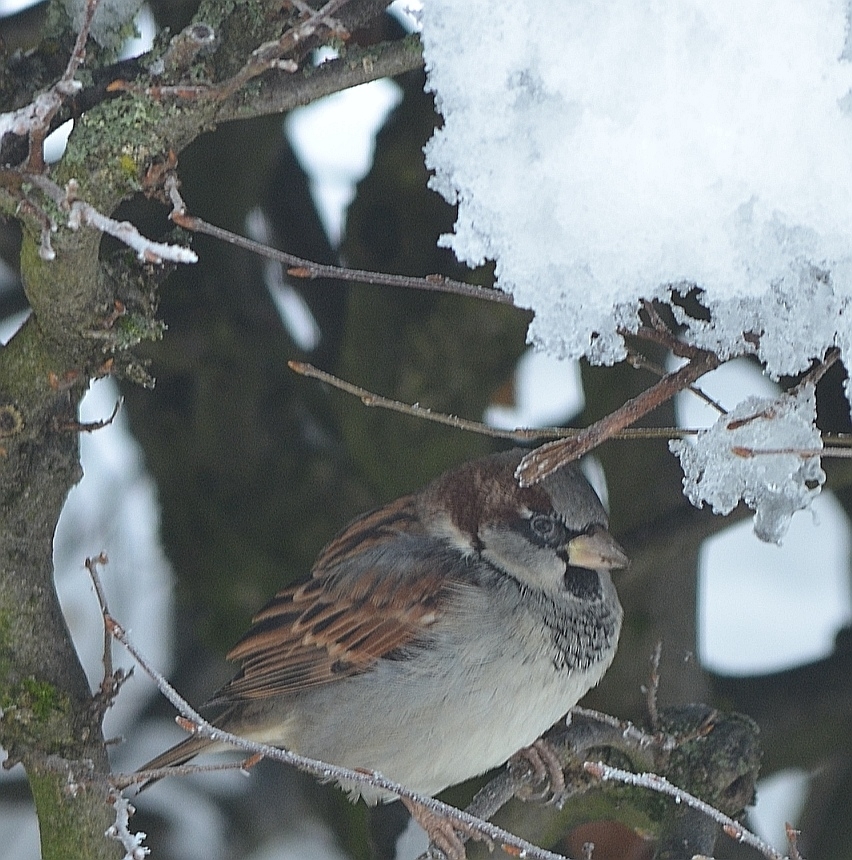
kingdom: Animalia
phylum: Chordata
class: Aves
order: Passeriformes
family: Passeridae
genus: Passer
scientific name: Passer domesticus
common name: House sparrow
